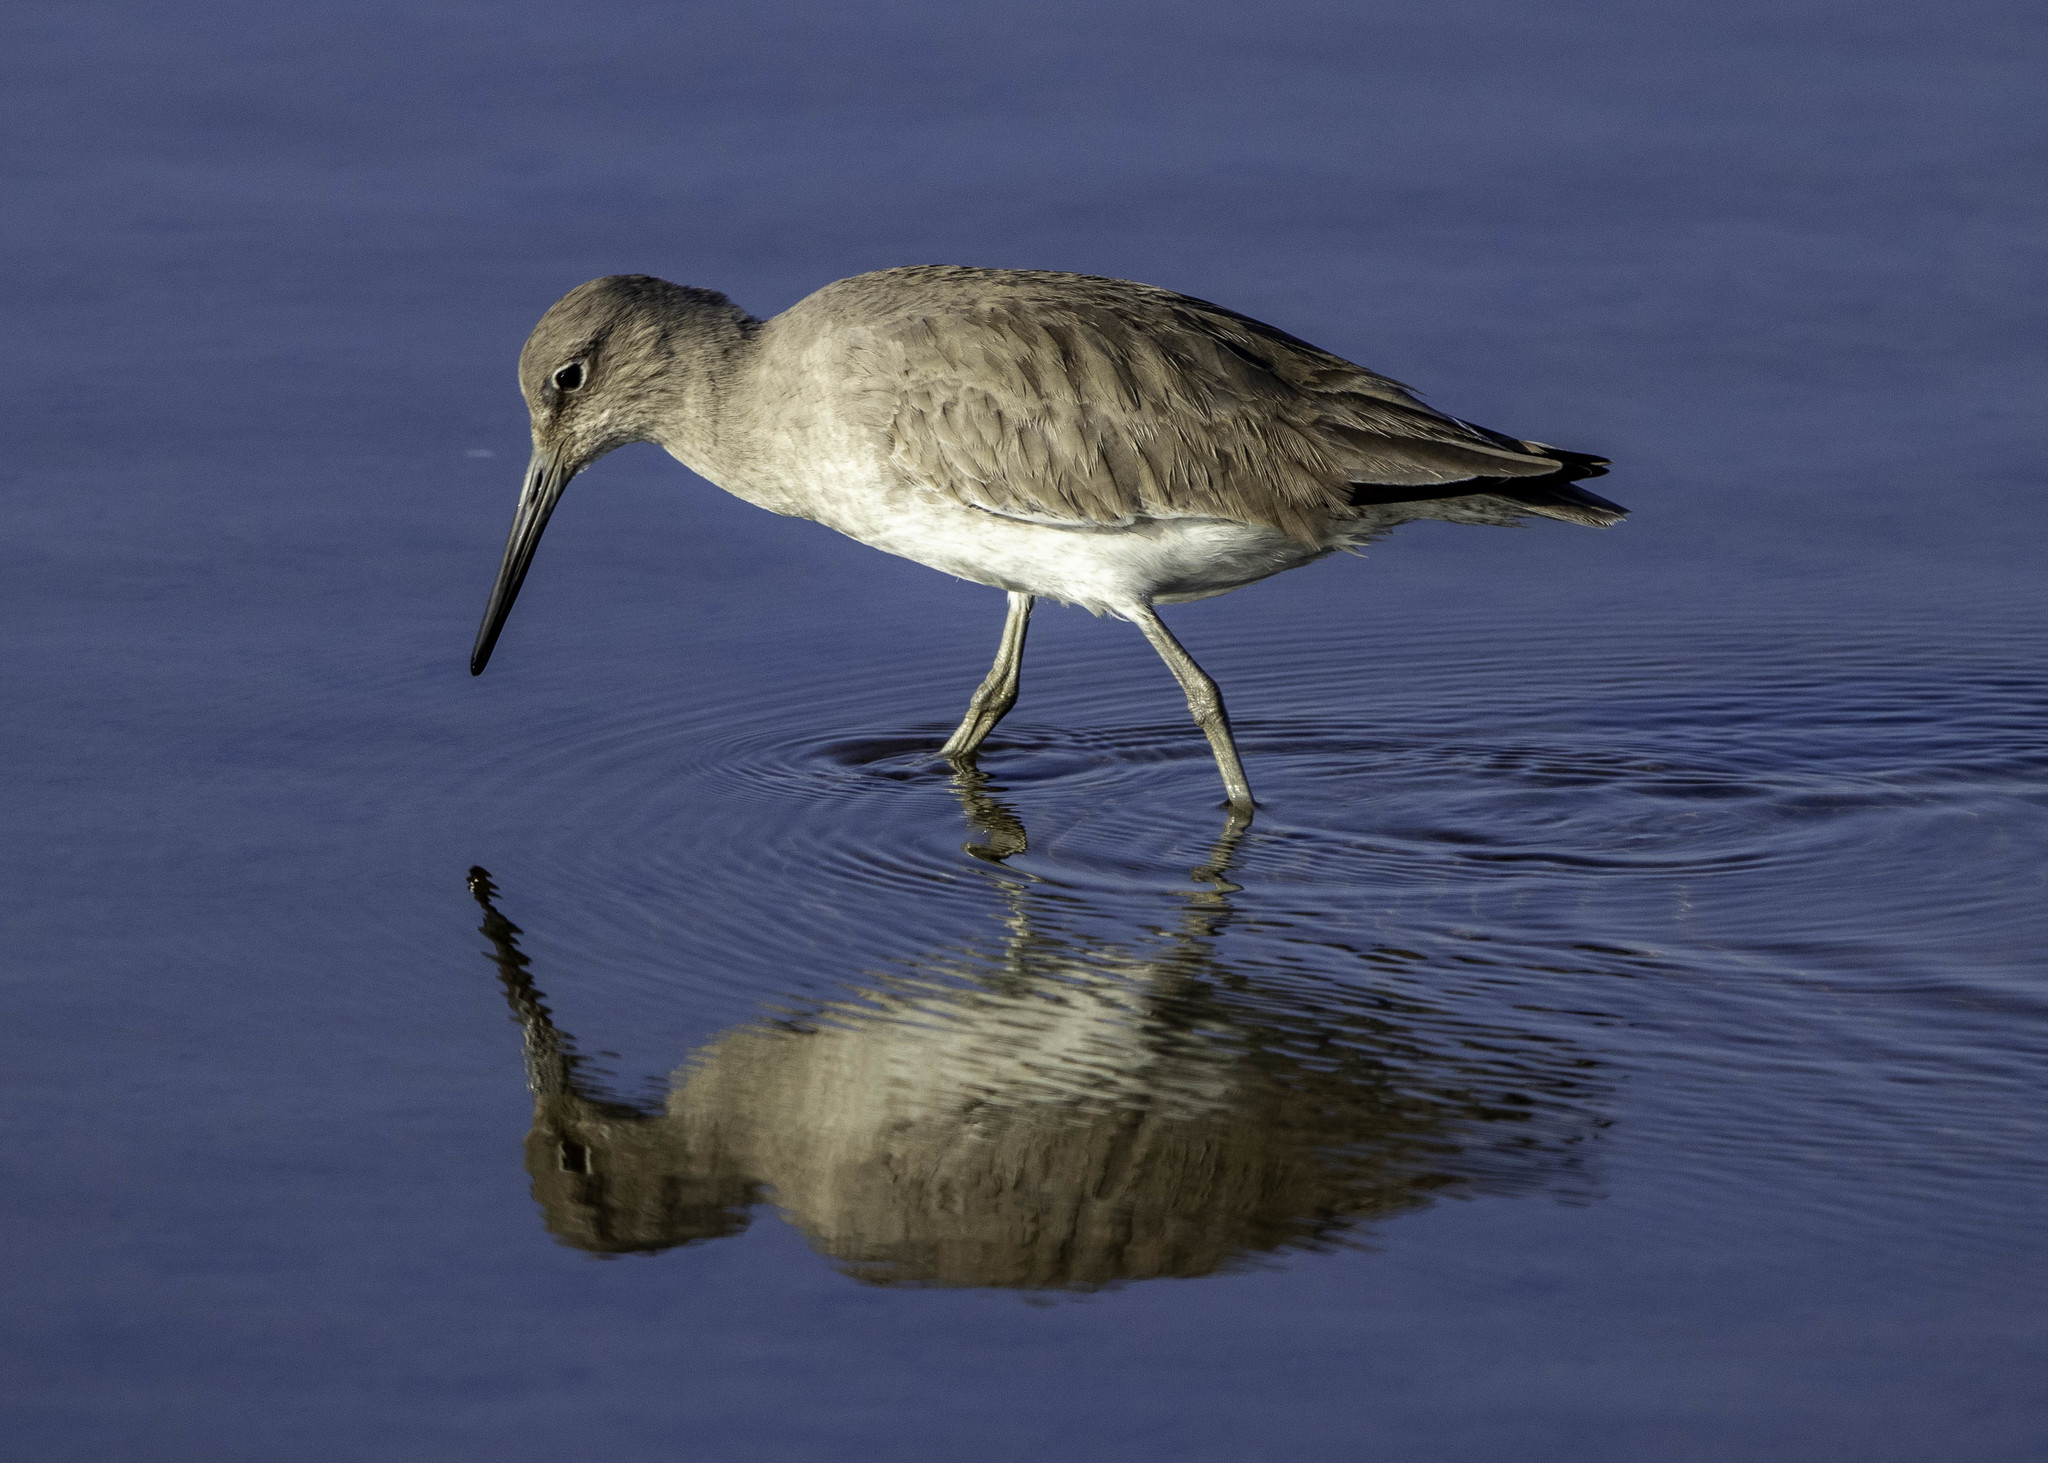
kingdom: Animalia
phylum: Chordata
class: Aves
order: Charadriiformes
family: Scolopacidae
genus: Tringa
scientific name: Tringa semipalmata
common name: Willet
